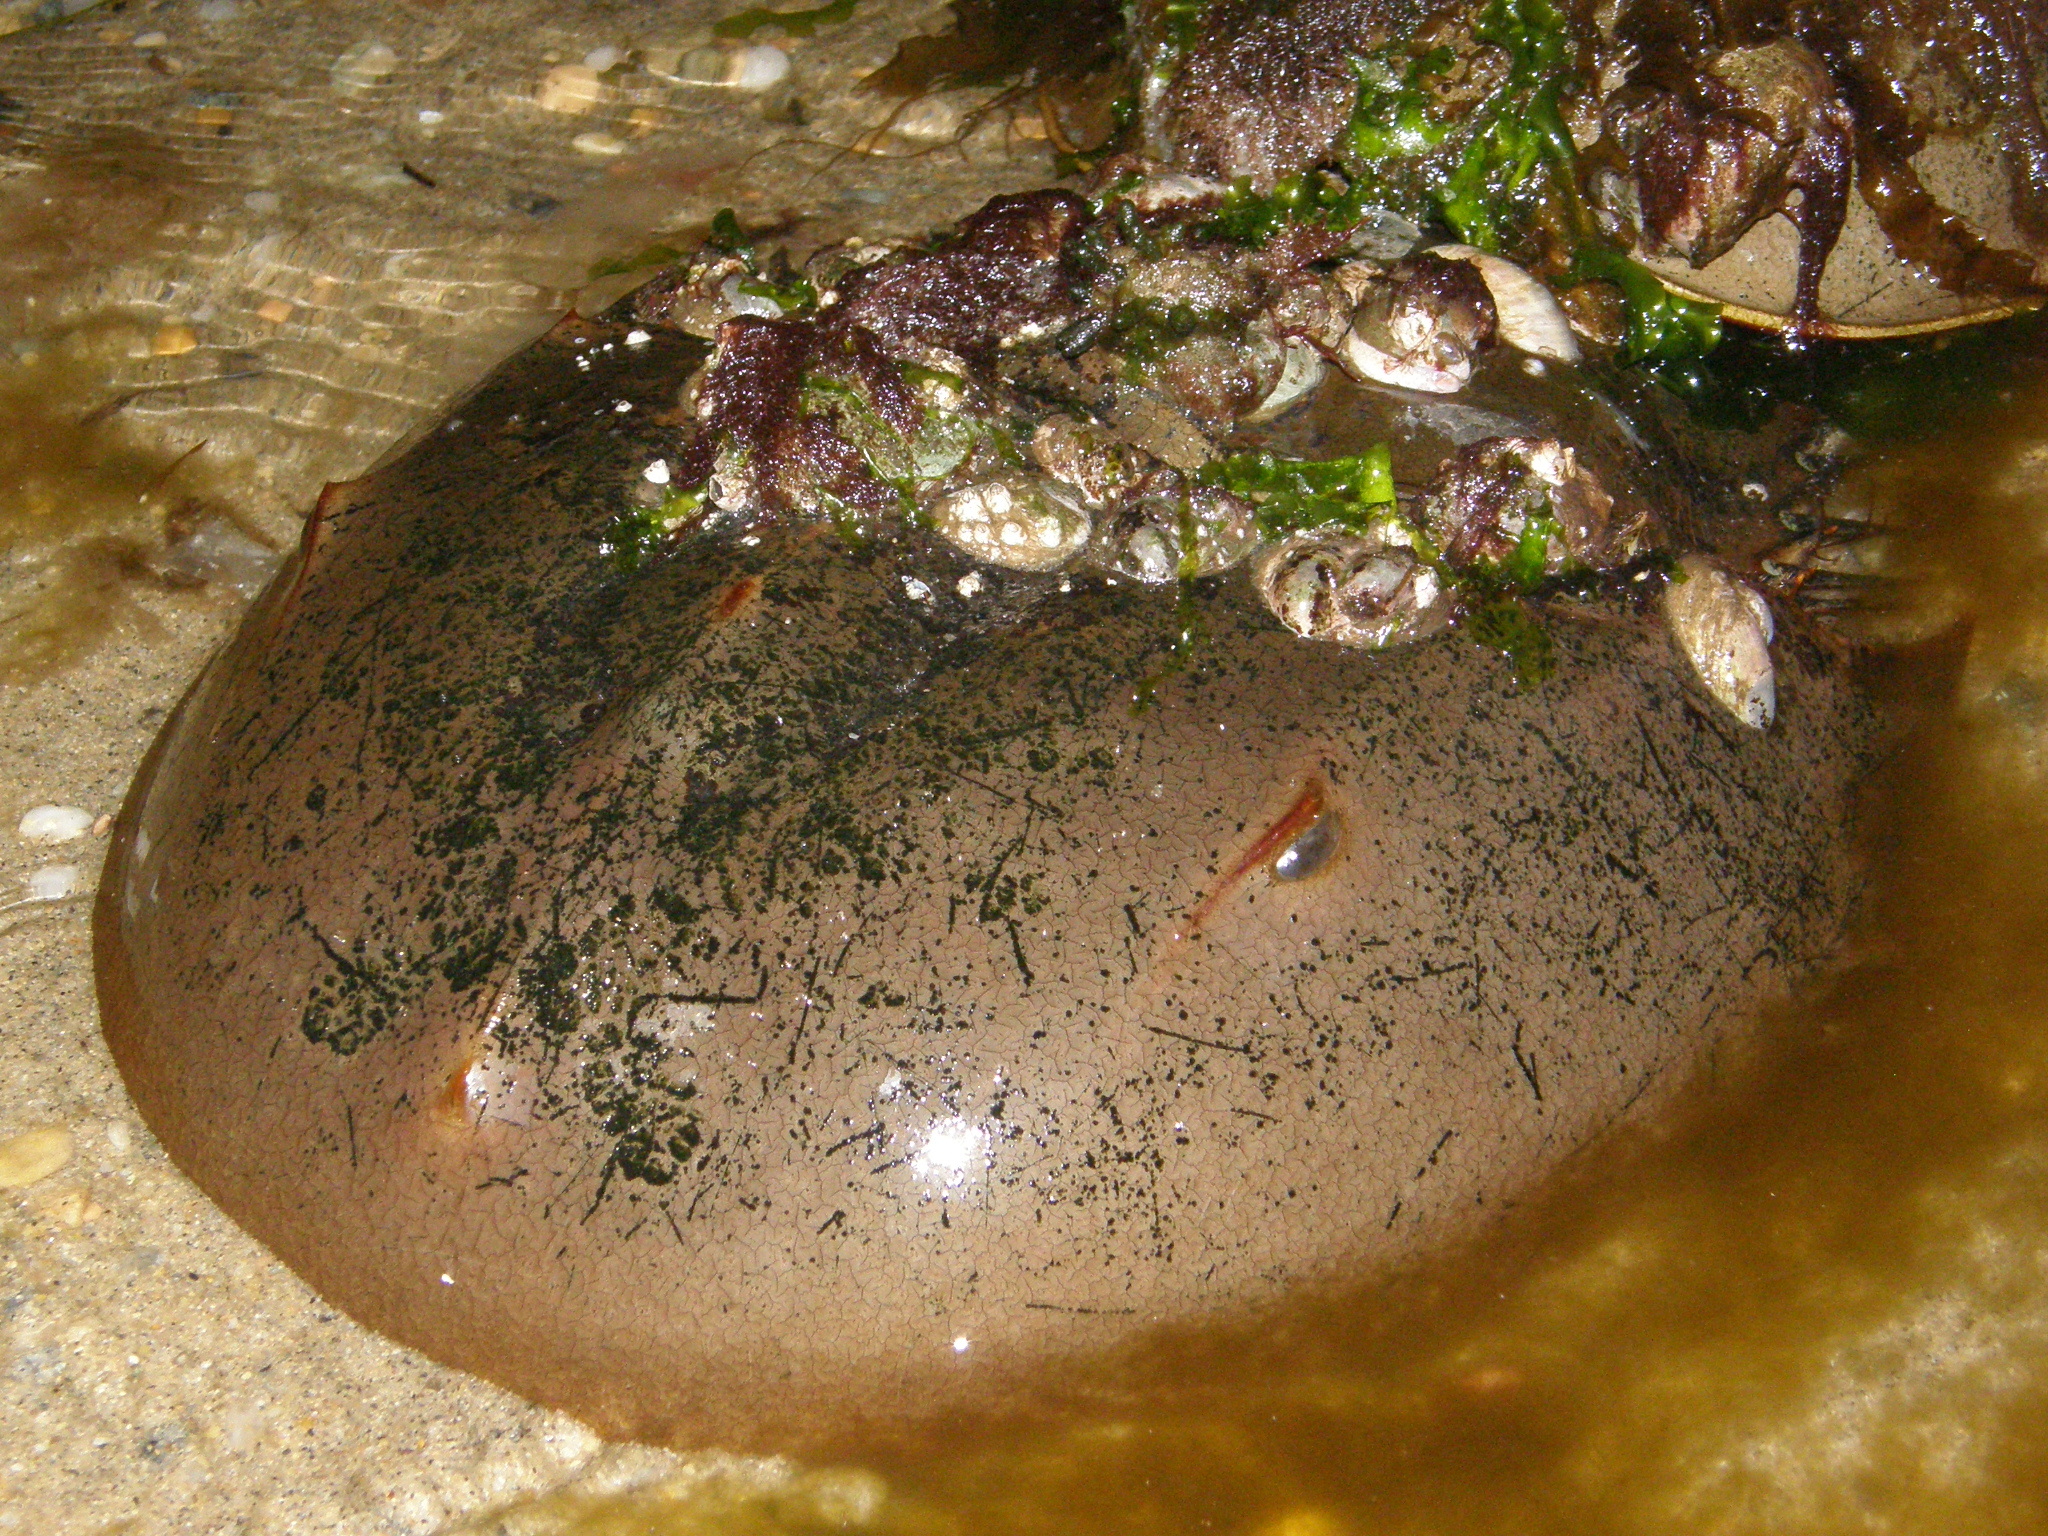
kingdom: Animalia
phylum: Arthropoda
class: Merostomata
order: Xiphosurida
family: Limulidae
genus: Limulus
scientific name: Limulus polyphemus
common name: Horseshoe crab
